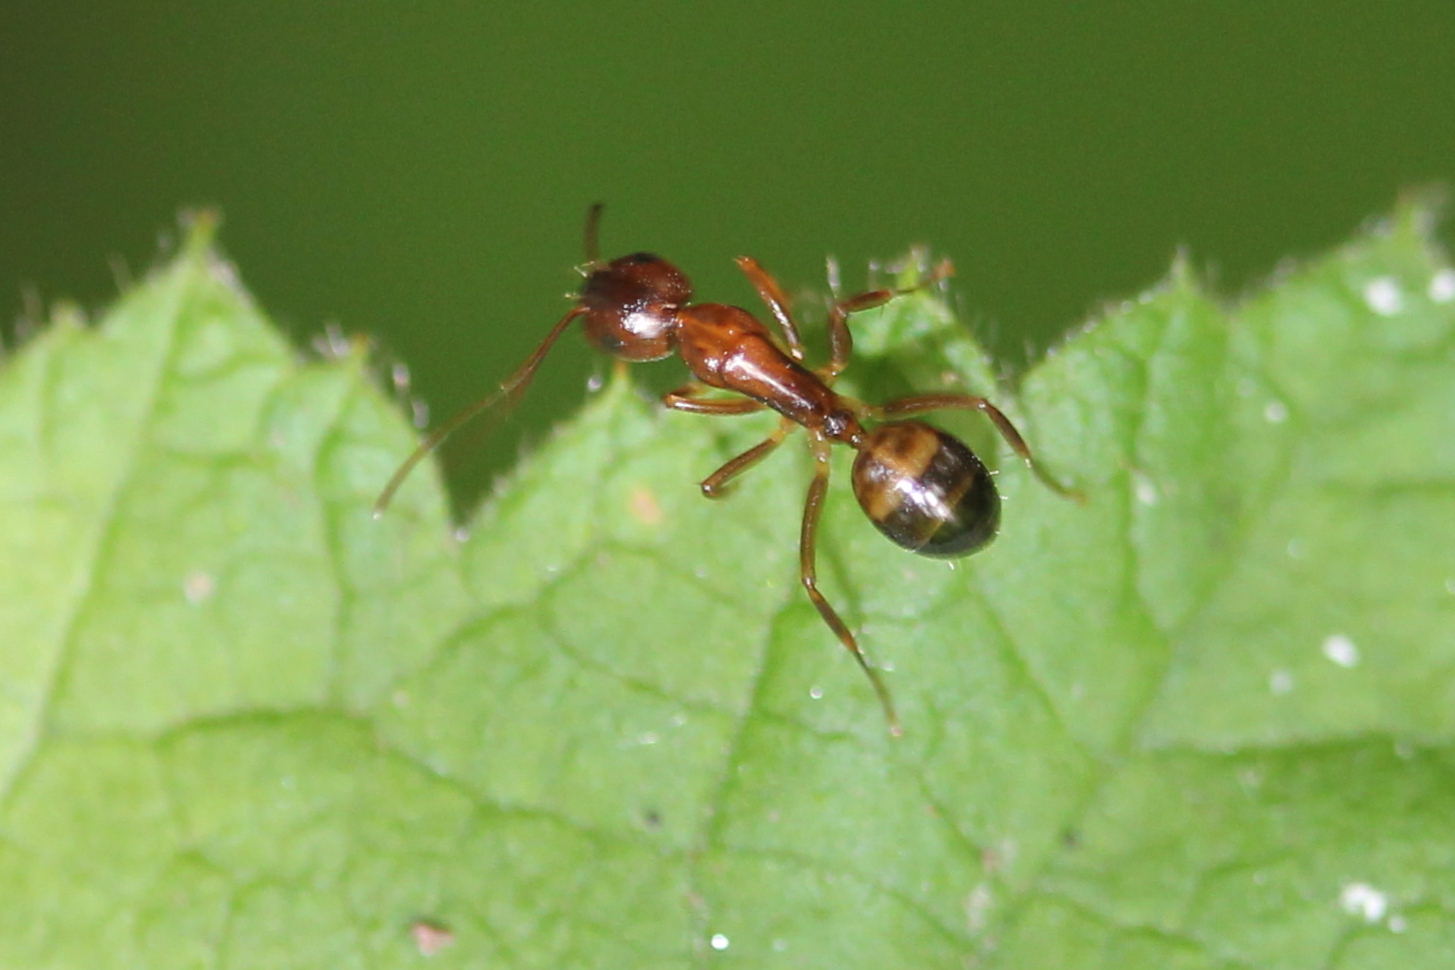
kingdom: Animalia
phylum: Arthropoda
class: Insecta
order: Hymenoptera
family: Formicidae
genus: Camponotus
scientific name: Camponotus subbarbatus
